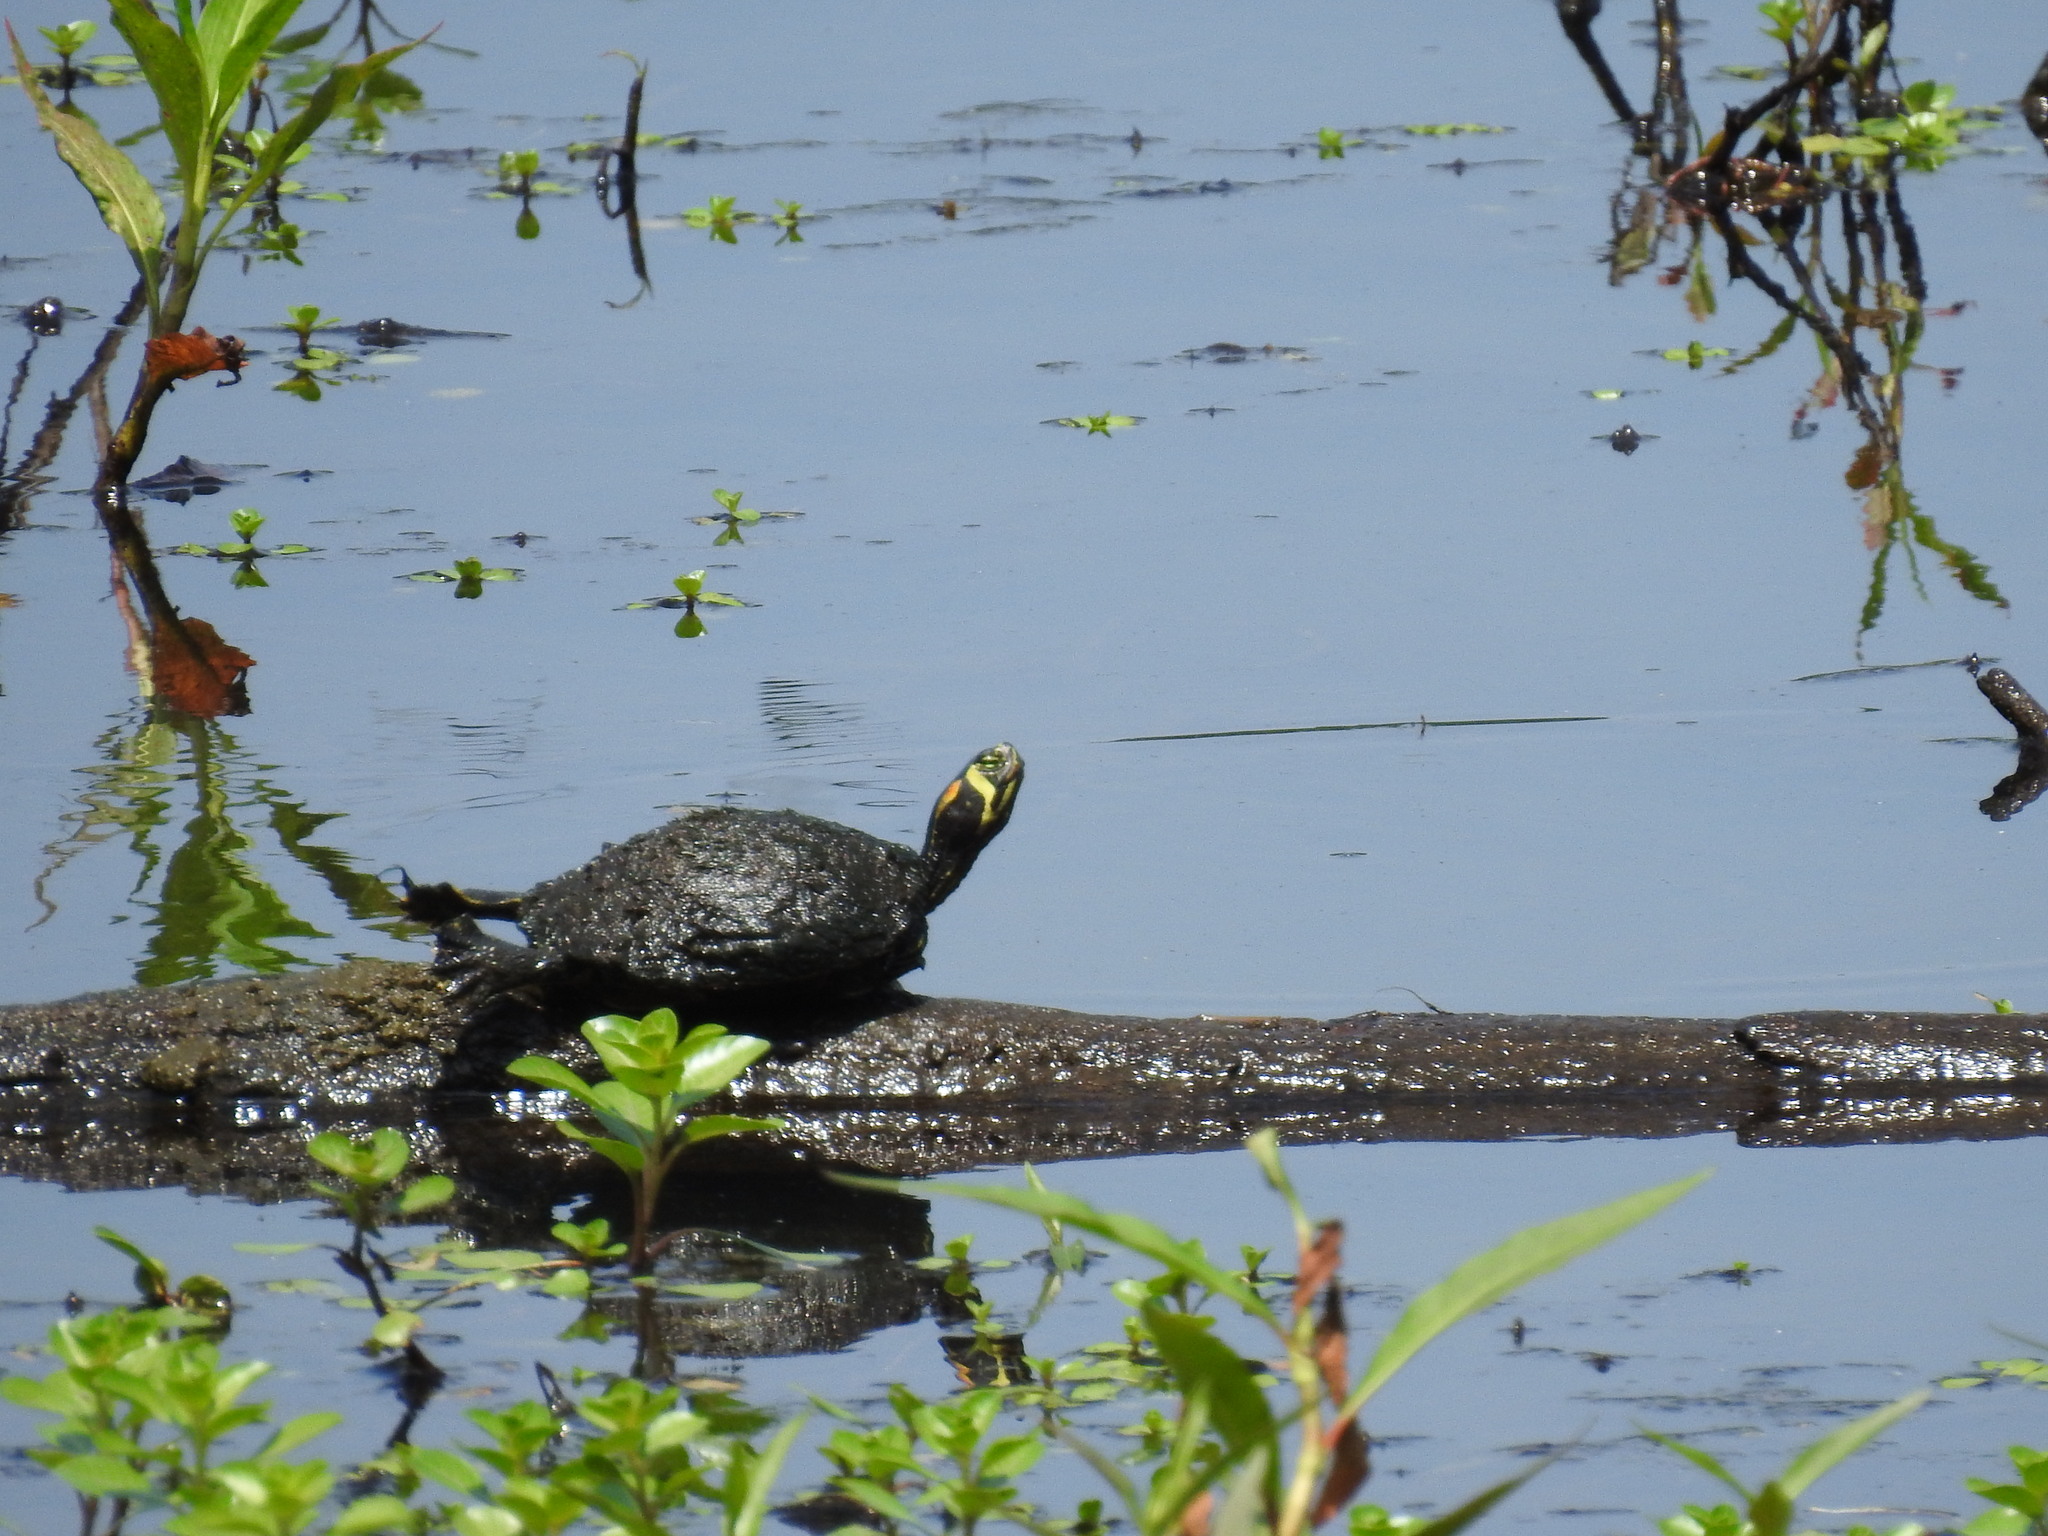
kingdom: Animalia
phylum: Chordata
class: Testudines
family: Emydidae
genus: Trachemys
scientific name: Trachemys scripta
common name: Slider
